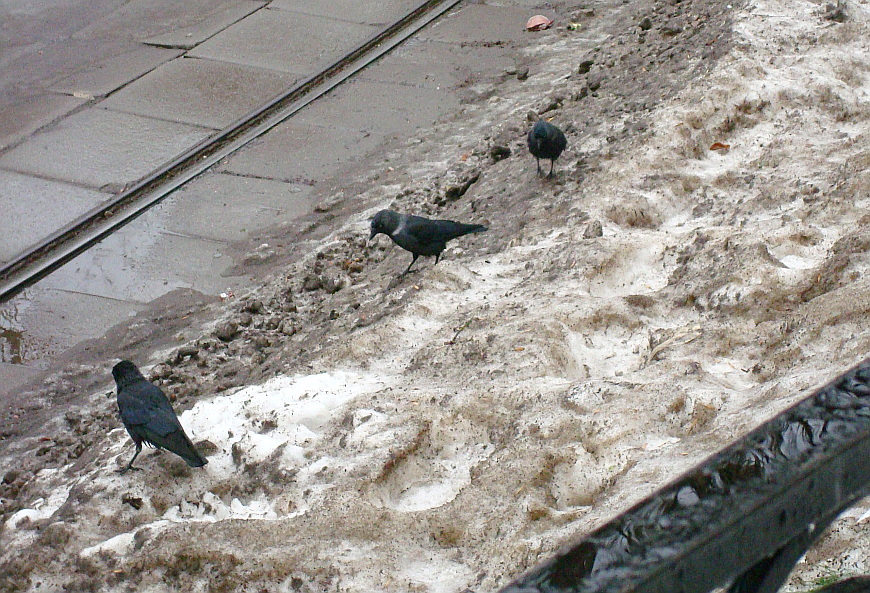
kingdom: Animalia
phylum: Chordata
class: Aves
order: Passeriformes
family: Corvidae
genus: Coloeus
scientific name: Coloeus monedula
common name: Western jackdaw
